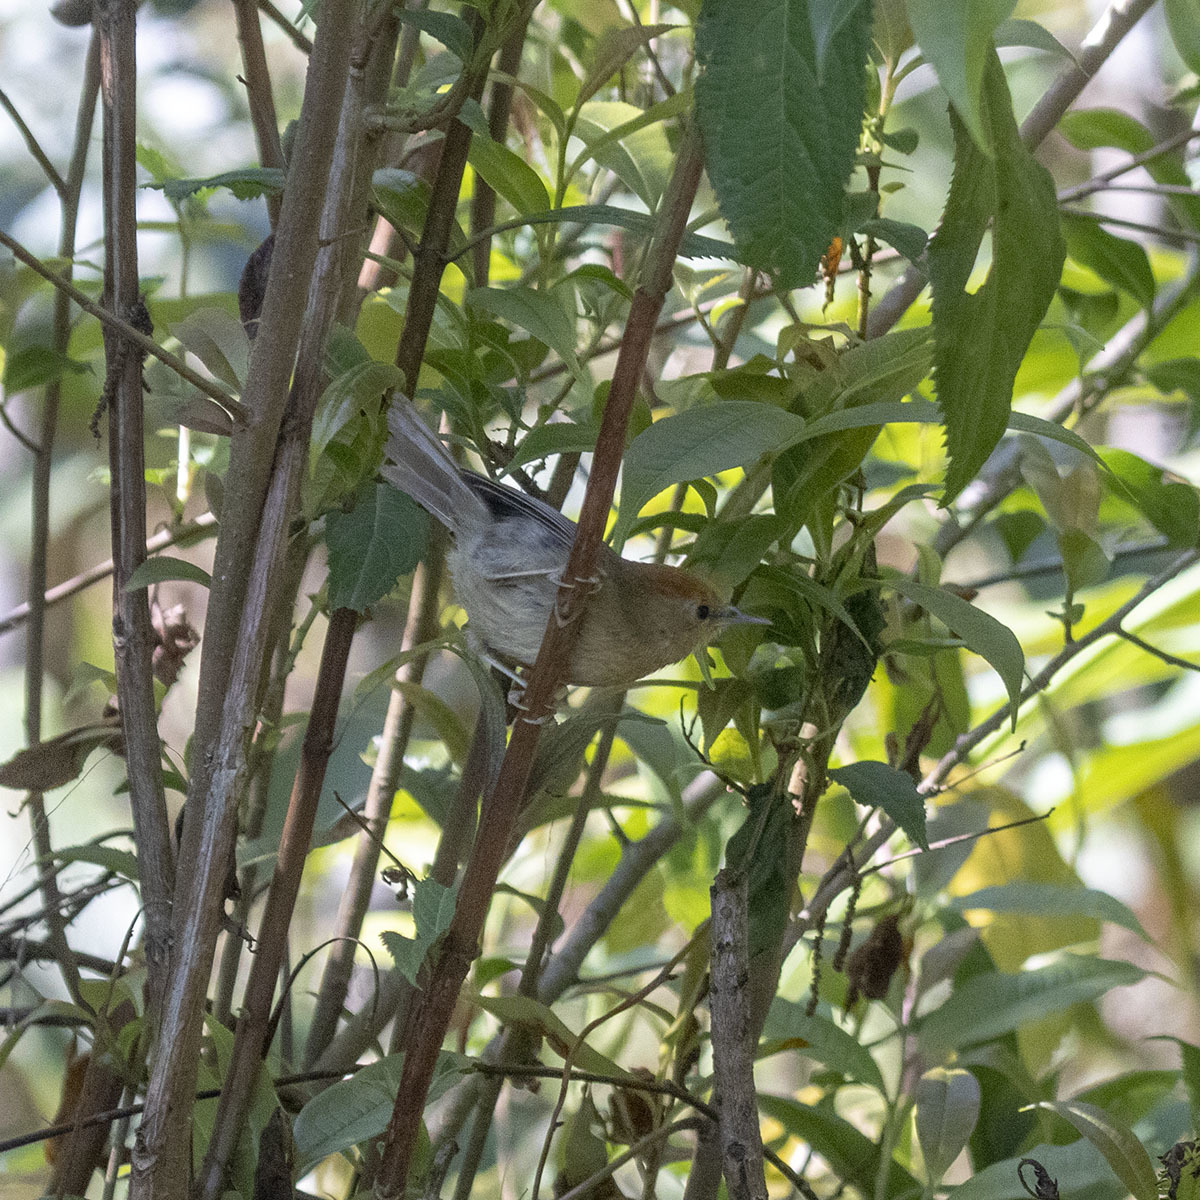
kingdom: Animalia
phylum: Chordata
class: Aves
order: Passeriformes
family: Timaliidae
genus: Stachyridopsis
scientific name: Stachyridopsis ruficeps
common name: Rufous-capped babbler
